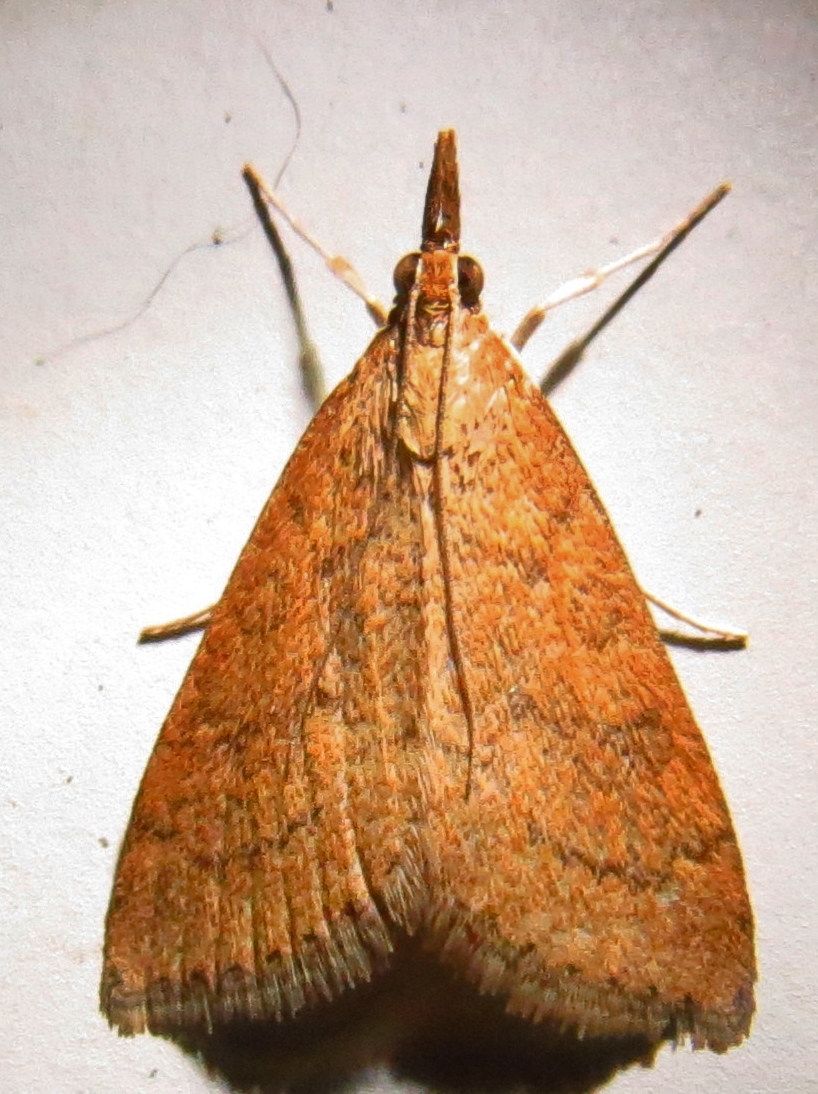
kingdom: Animalia
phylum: Arthropoda
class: Insecta
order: Lepidoptera
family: Crambidae
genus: Udea
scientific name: Udea rubigalis
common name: Celery leaftier moth
